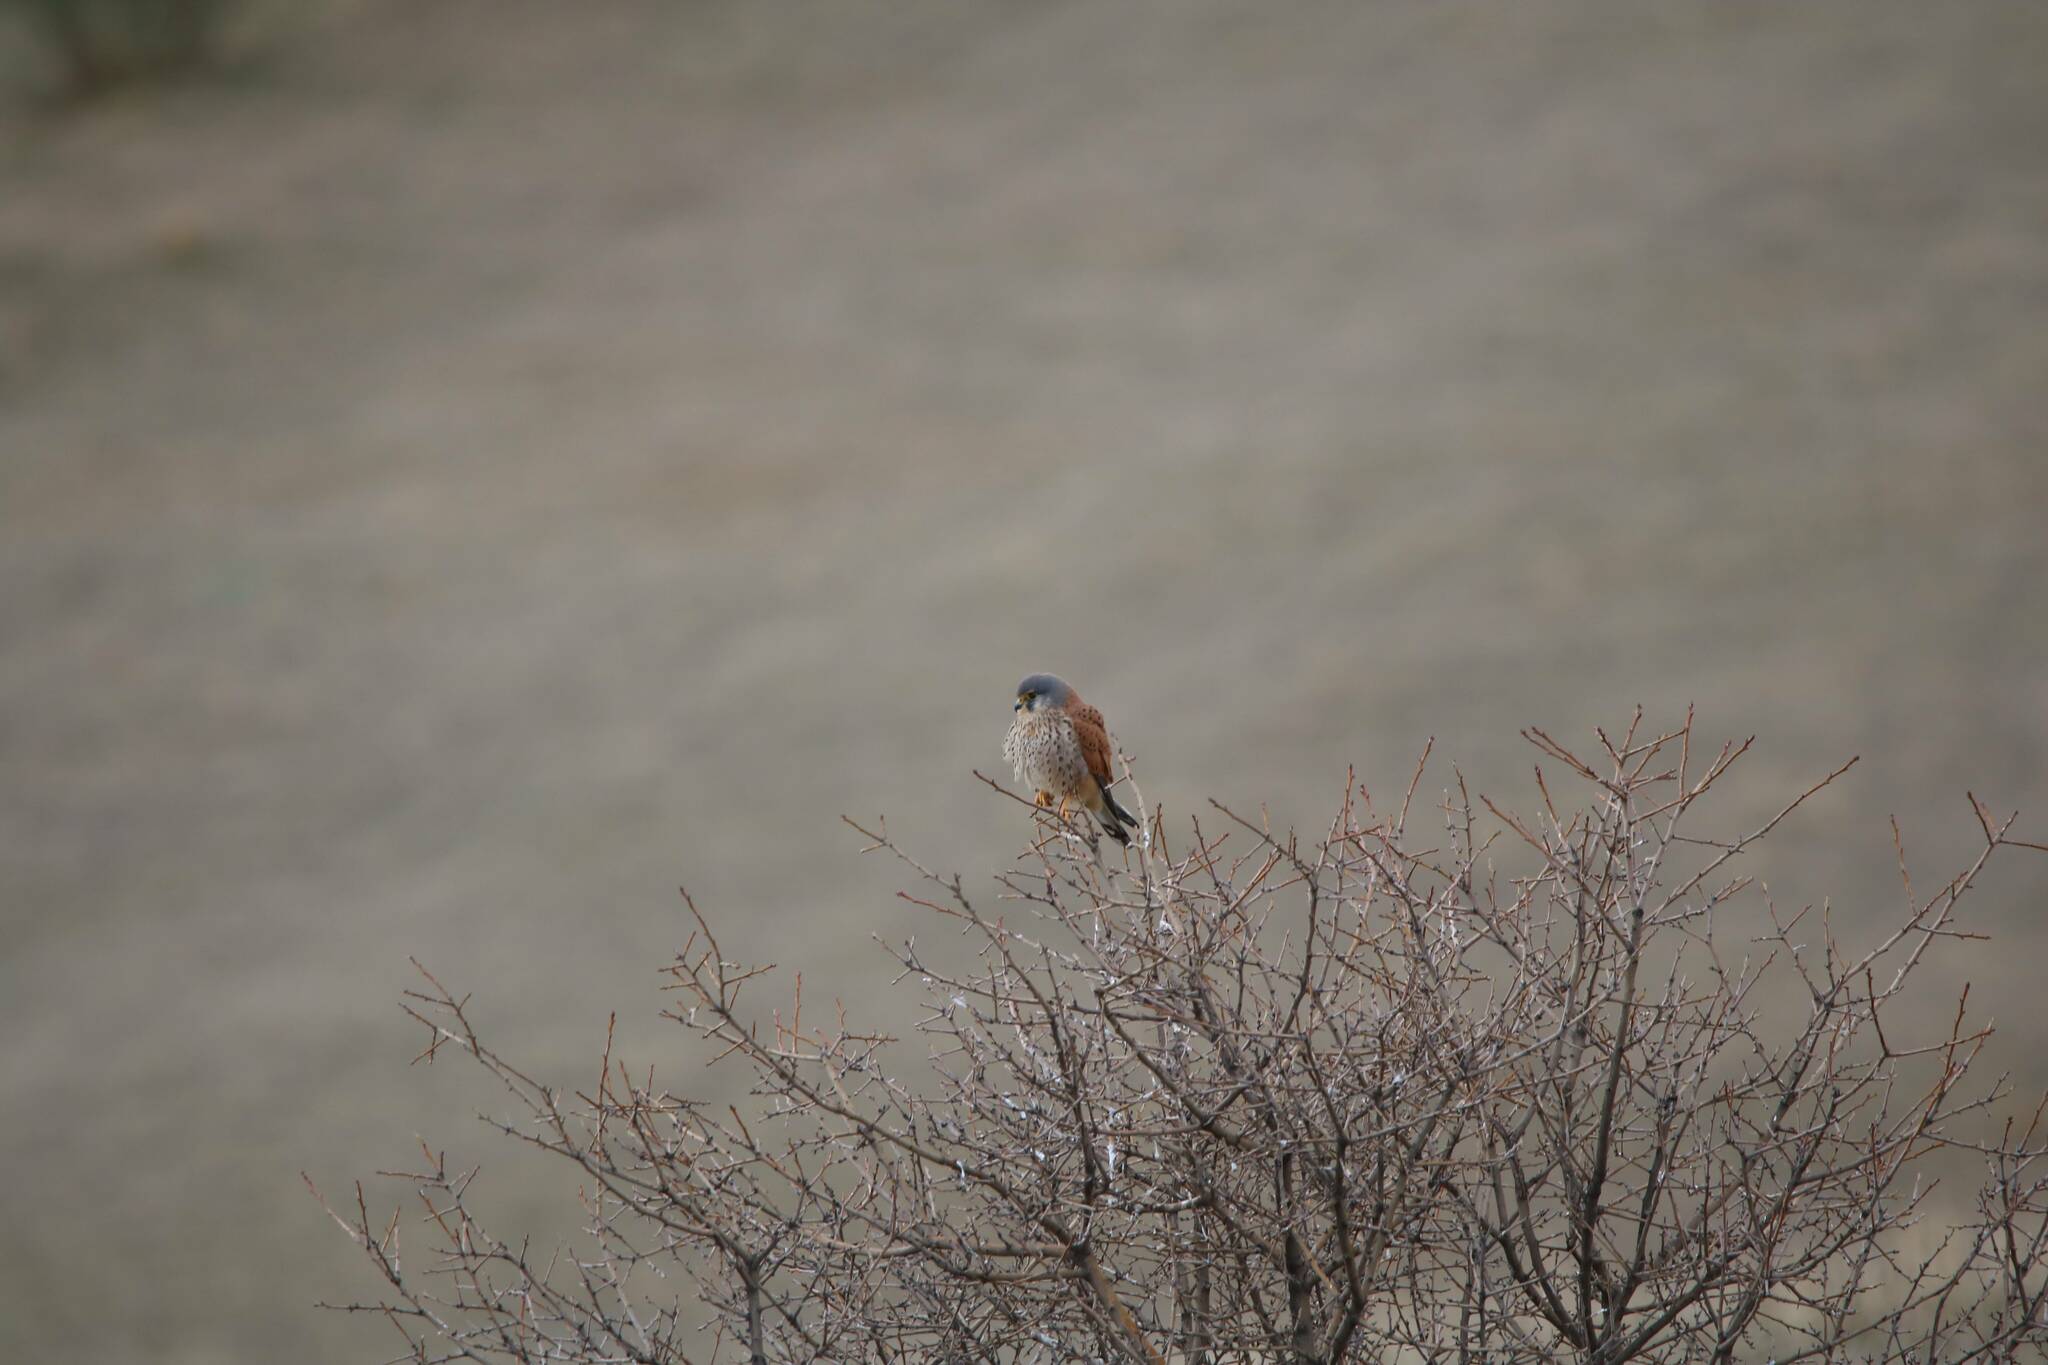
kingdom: Animalia
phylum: Chordata
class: Aves
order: Falconiformes
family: Falconidae
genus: Falco
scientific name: Falco tinnunculus
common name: Common kestrel
